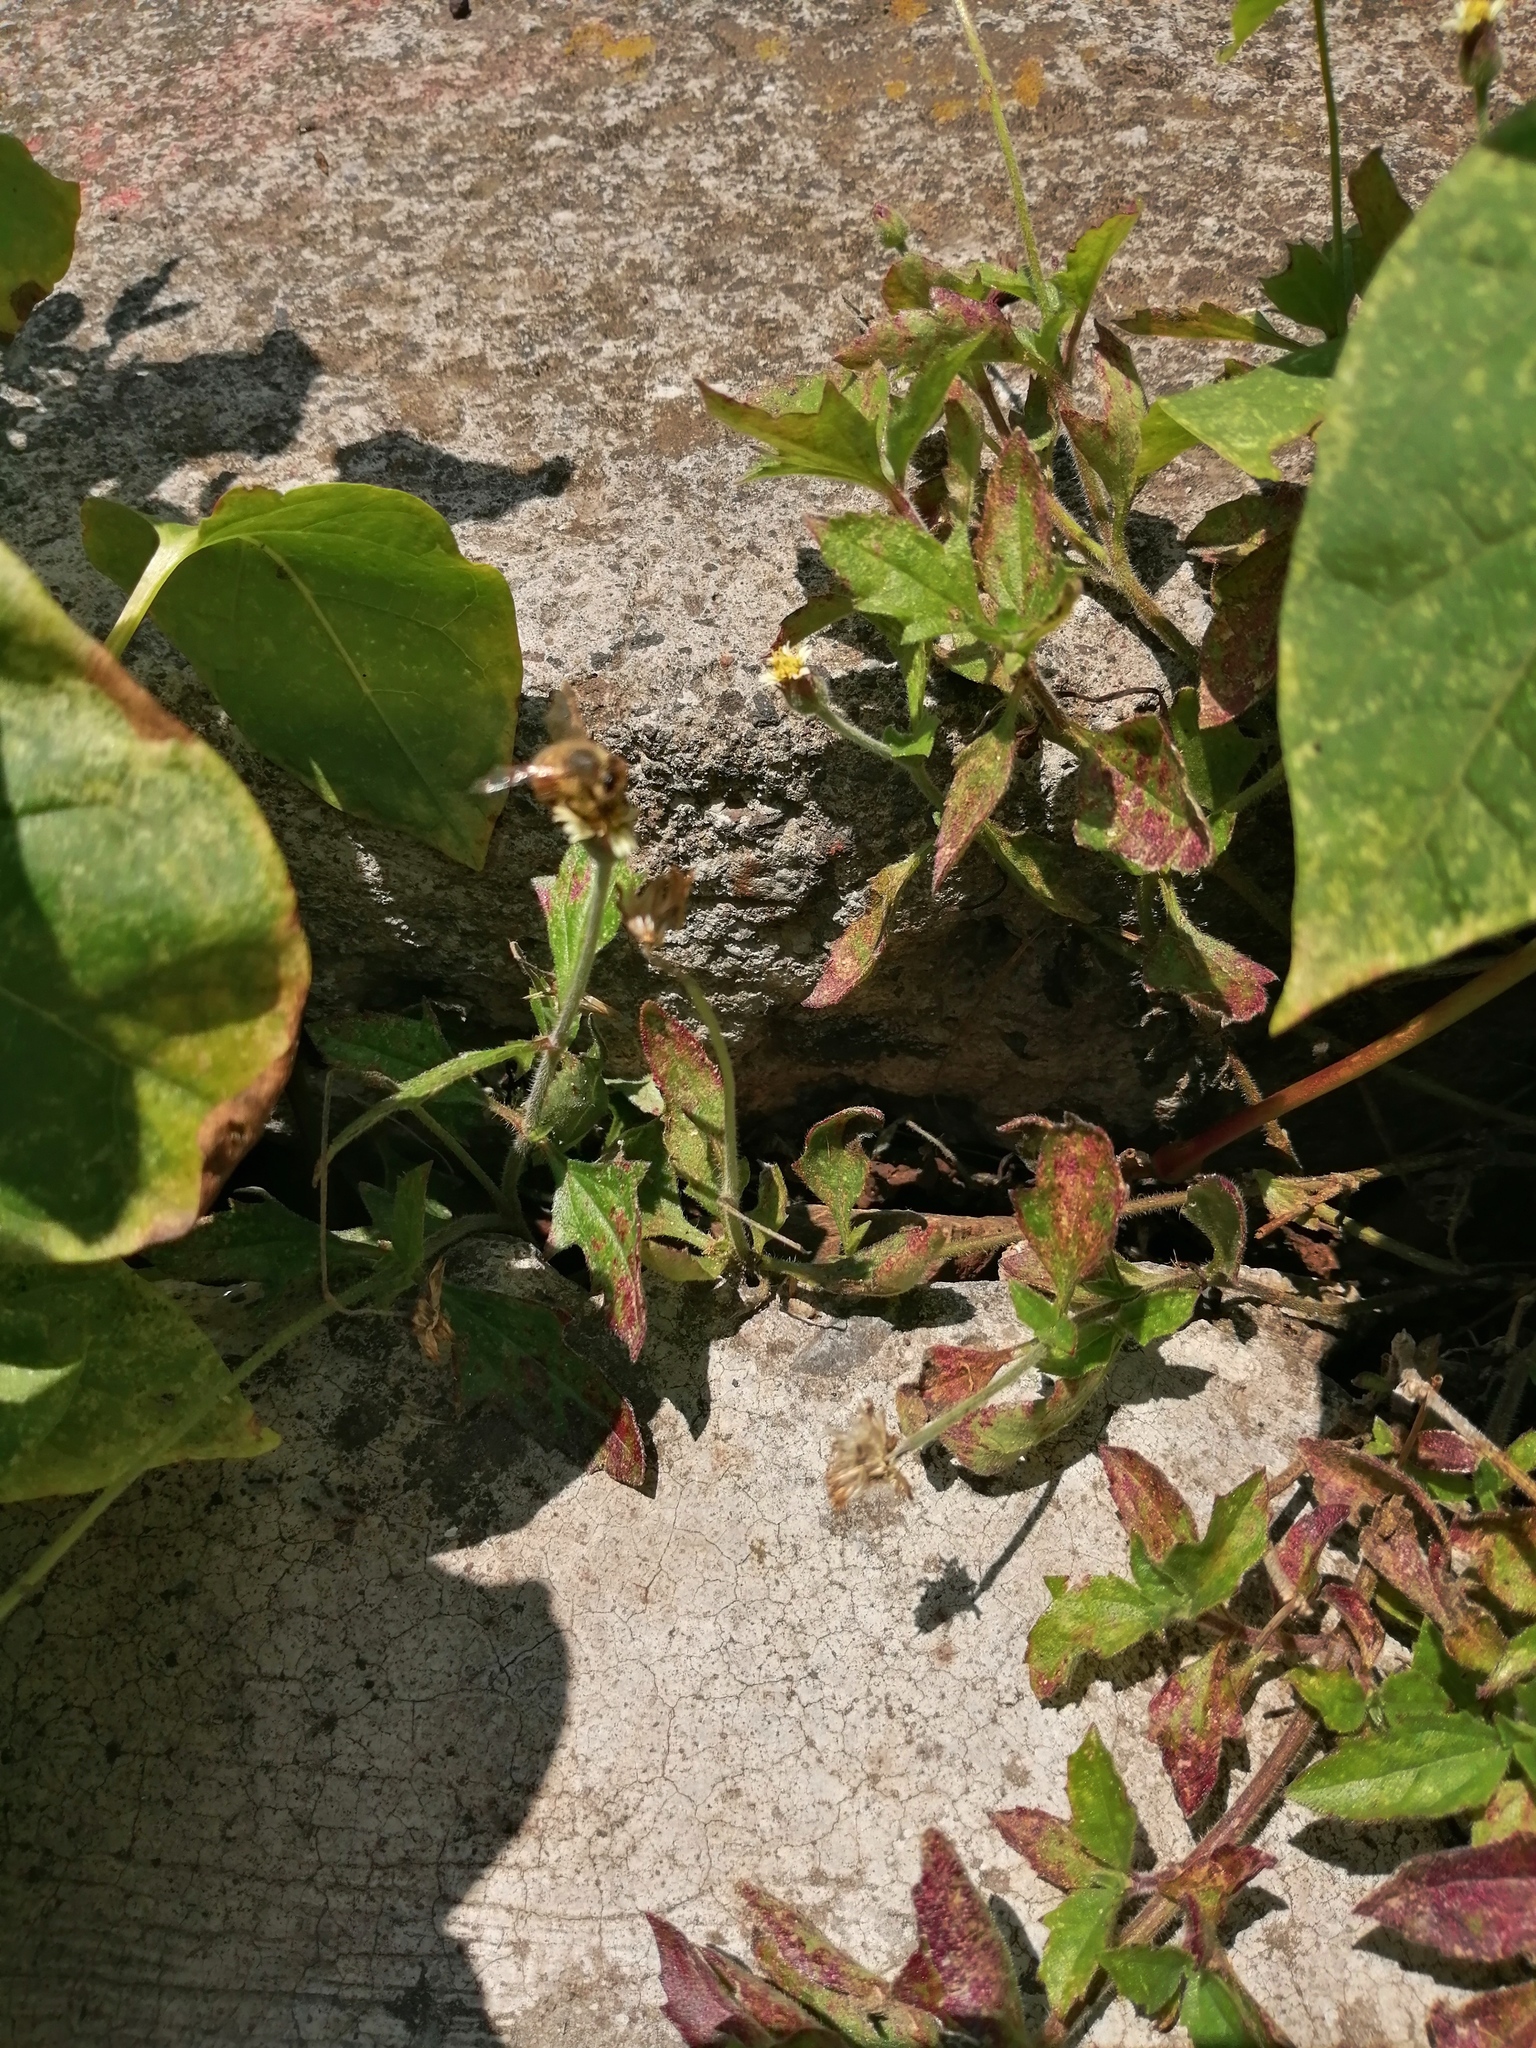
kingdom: Animalia
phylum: Arthropoda
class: Insecta
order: Hymenoptera
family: Apidae
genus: Apis
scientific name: Apis mellifera
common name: Honey bee
